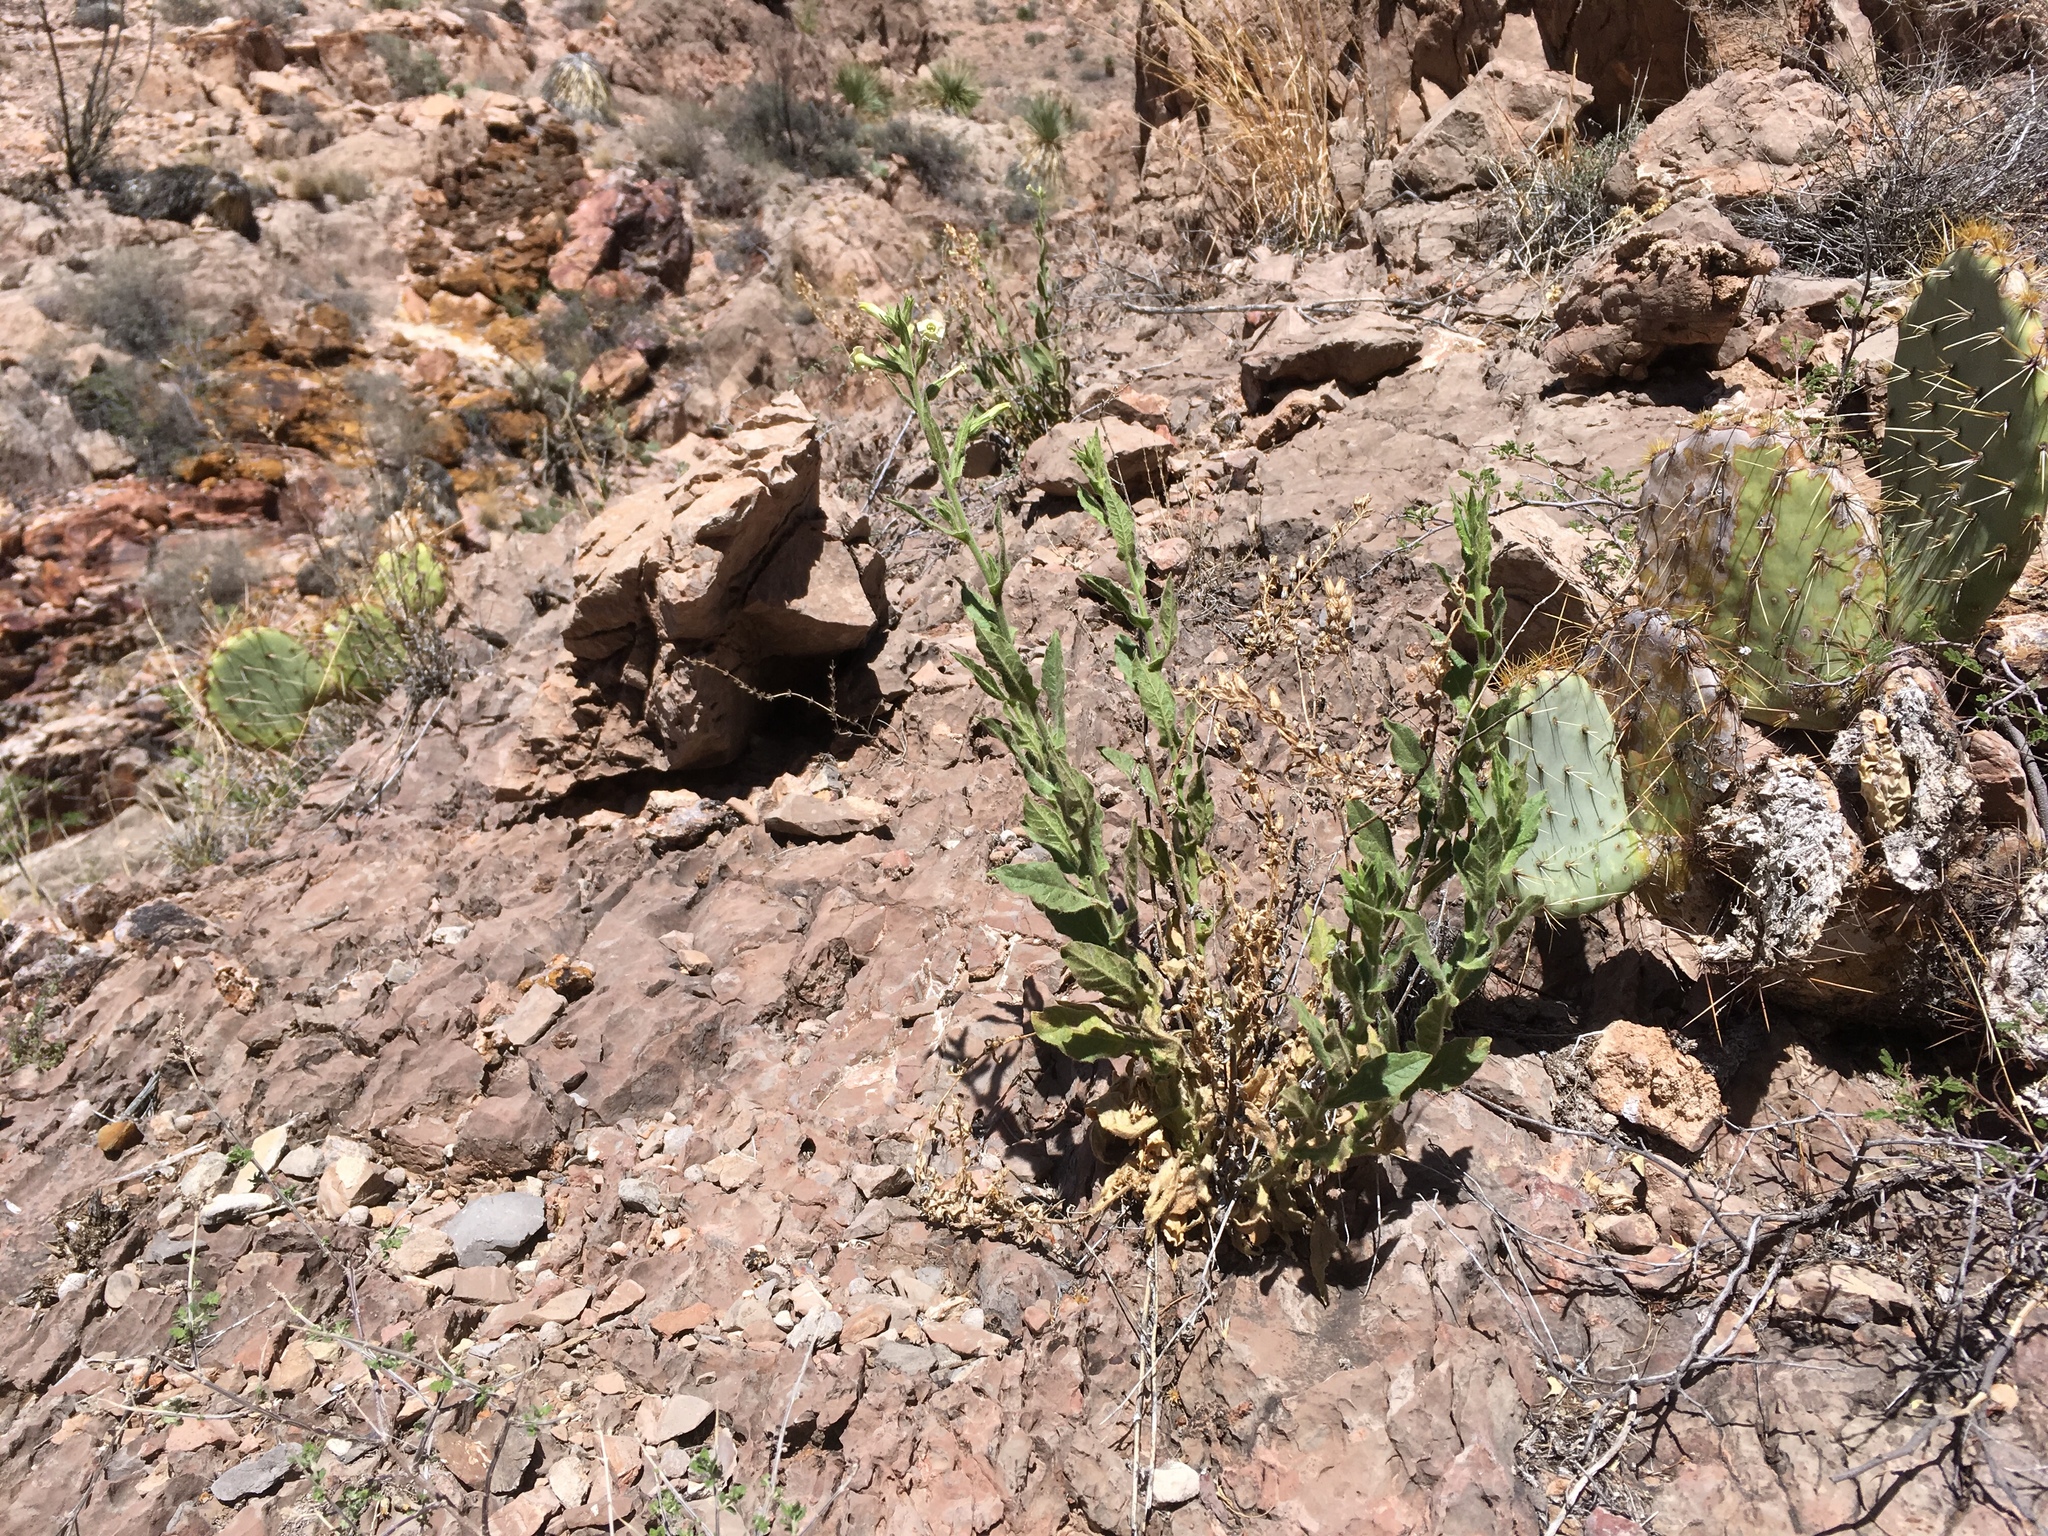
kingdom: Plantae
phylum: Tracheophyta
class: Magnoliopsida
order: Solanales
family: Solanaceae
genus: Nicotiana
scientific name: Nicotiana obtusifolia
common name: Desert tobacco
